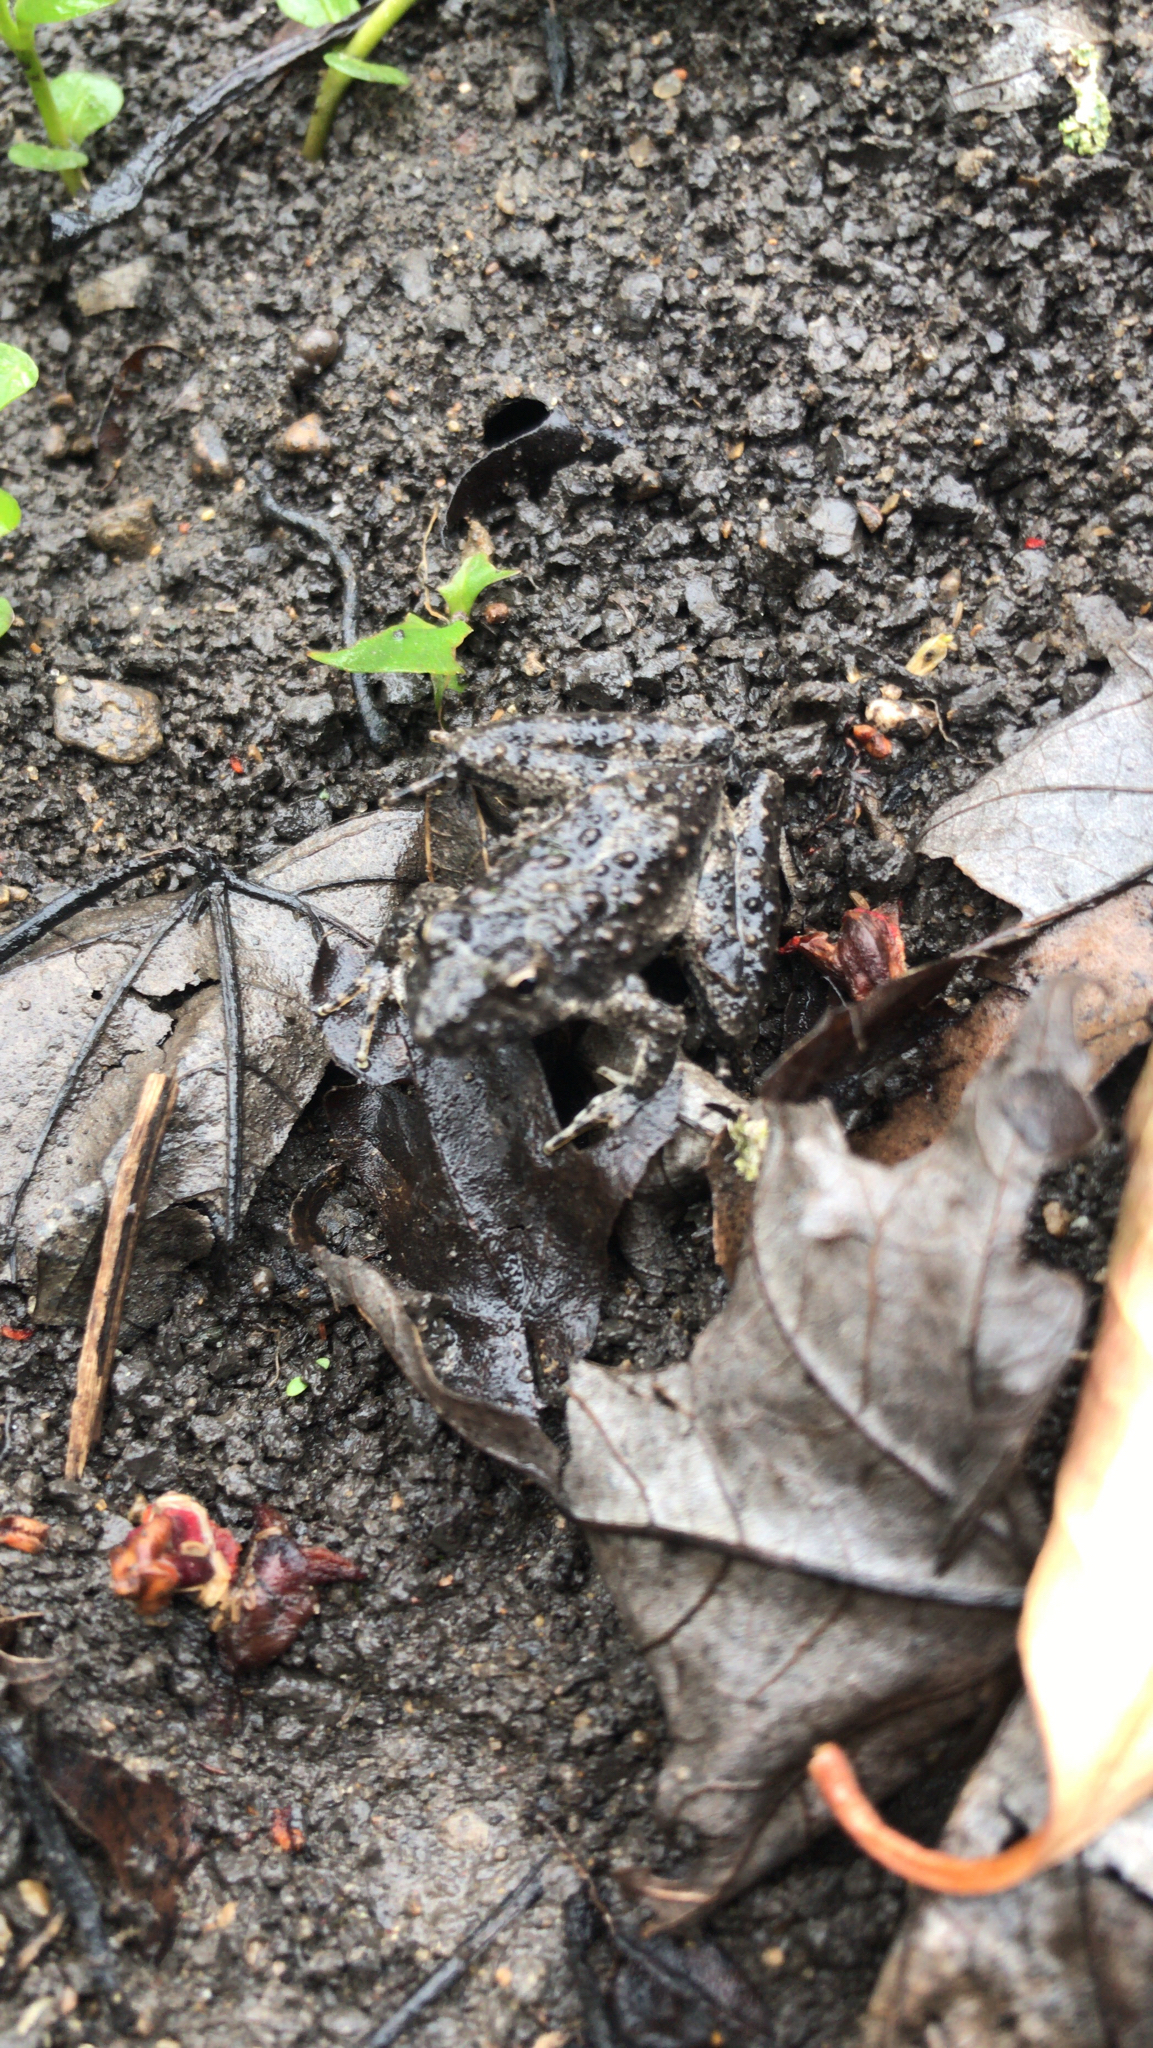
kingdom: Animalia
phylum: Chordata
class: Amphibia
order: Anura
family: Hylidae
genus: Acris
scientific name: Acris blanchardi
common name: Blanchard's cricket frog
